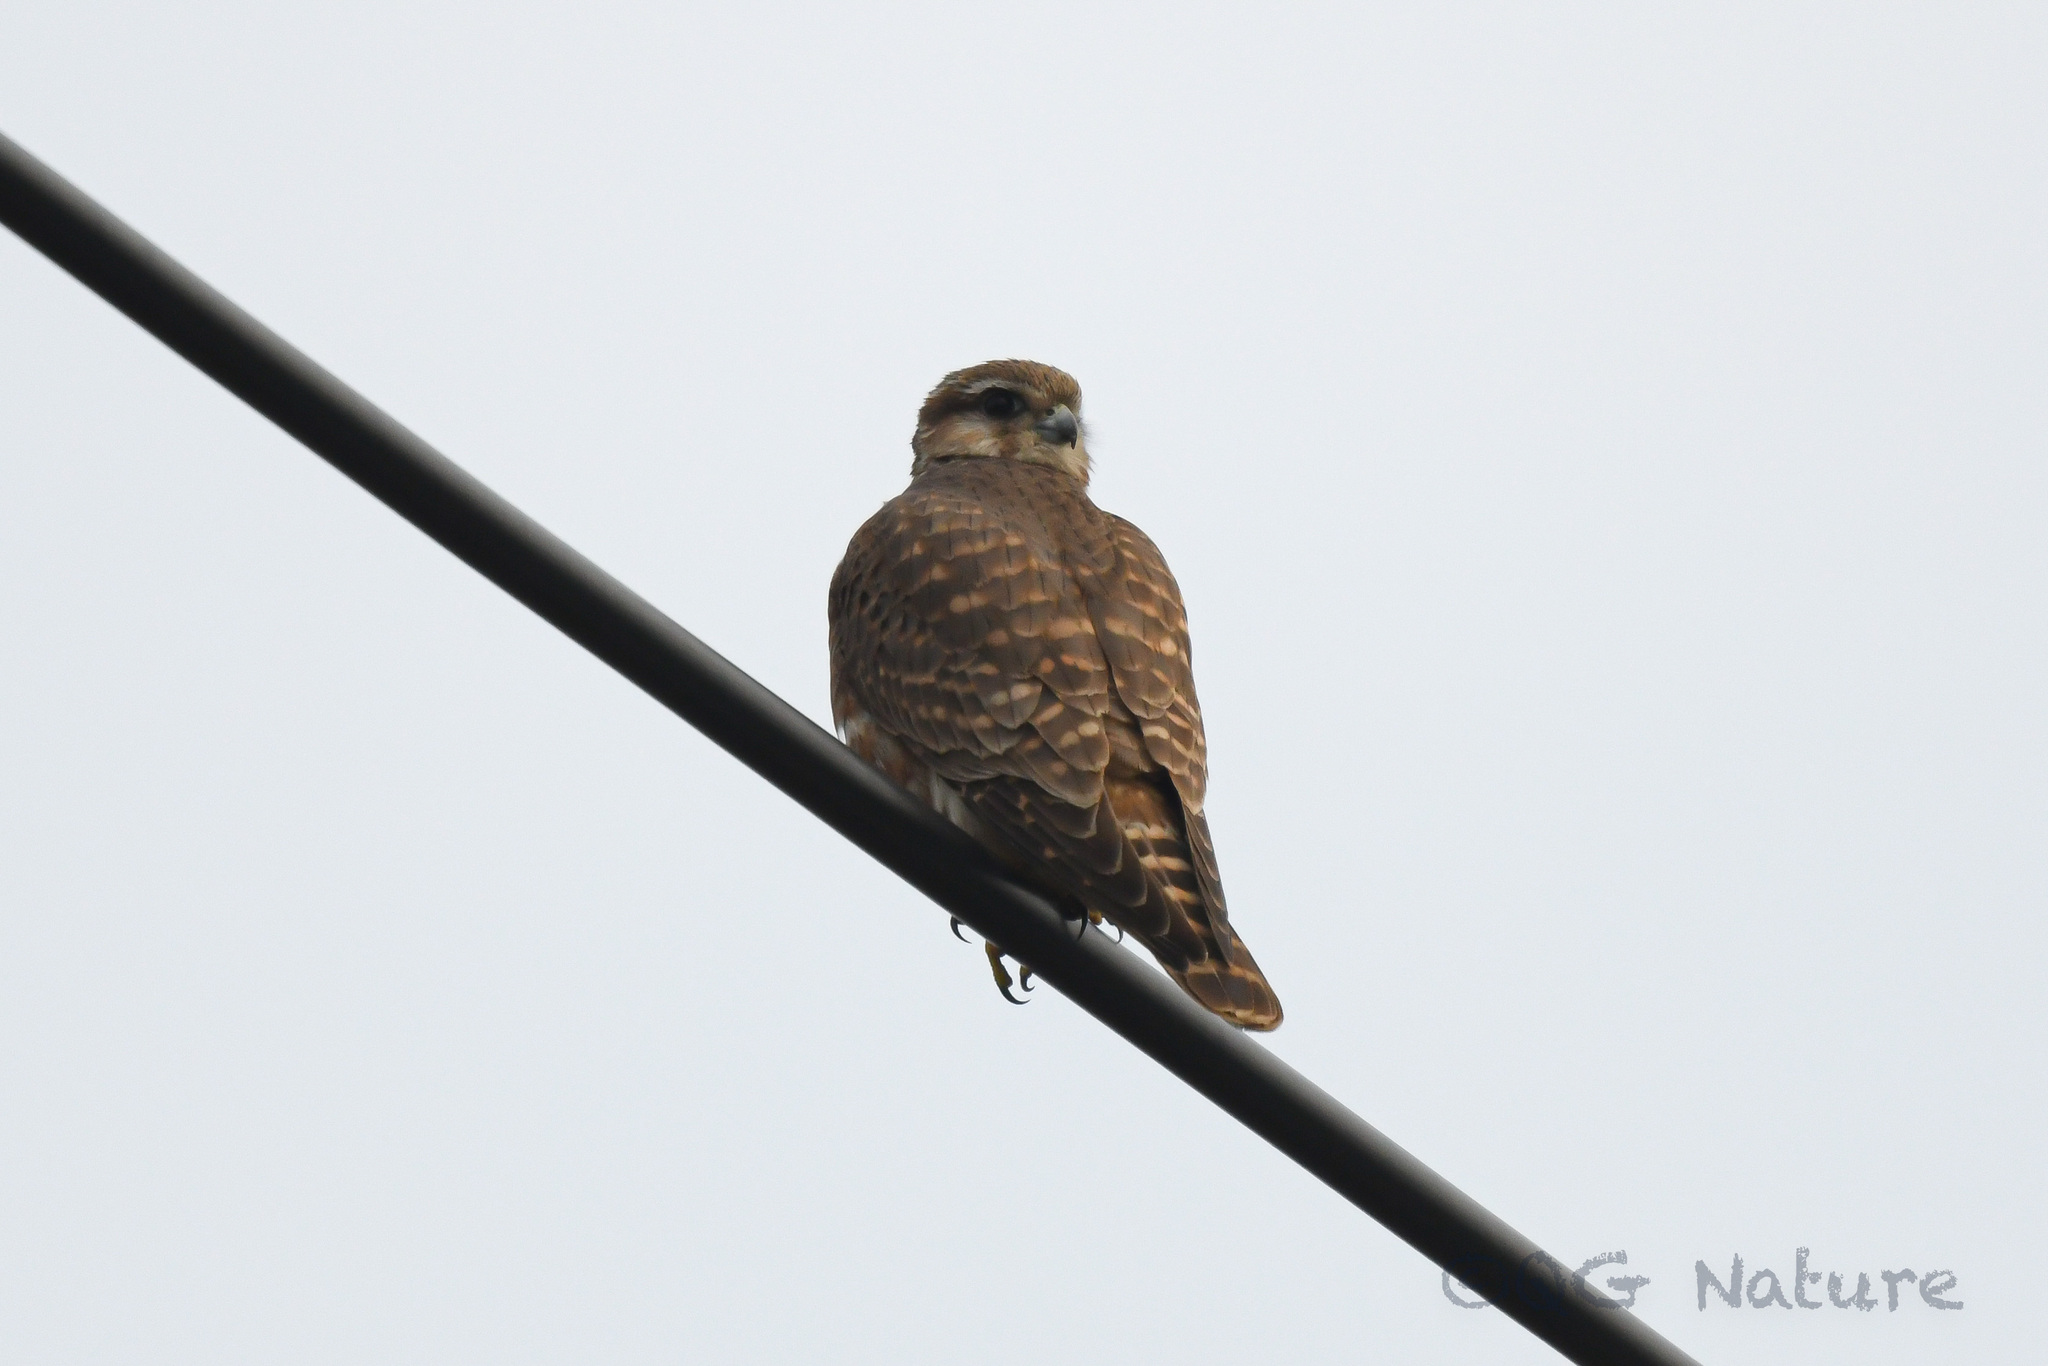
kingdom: Animalia
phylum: Chordata
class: Aves
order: Falconiformes
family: Falconidae
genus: Falco
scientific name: Falco columbarius
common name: Merlin
